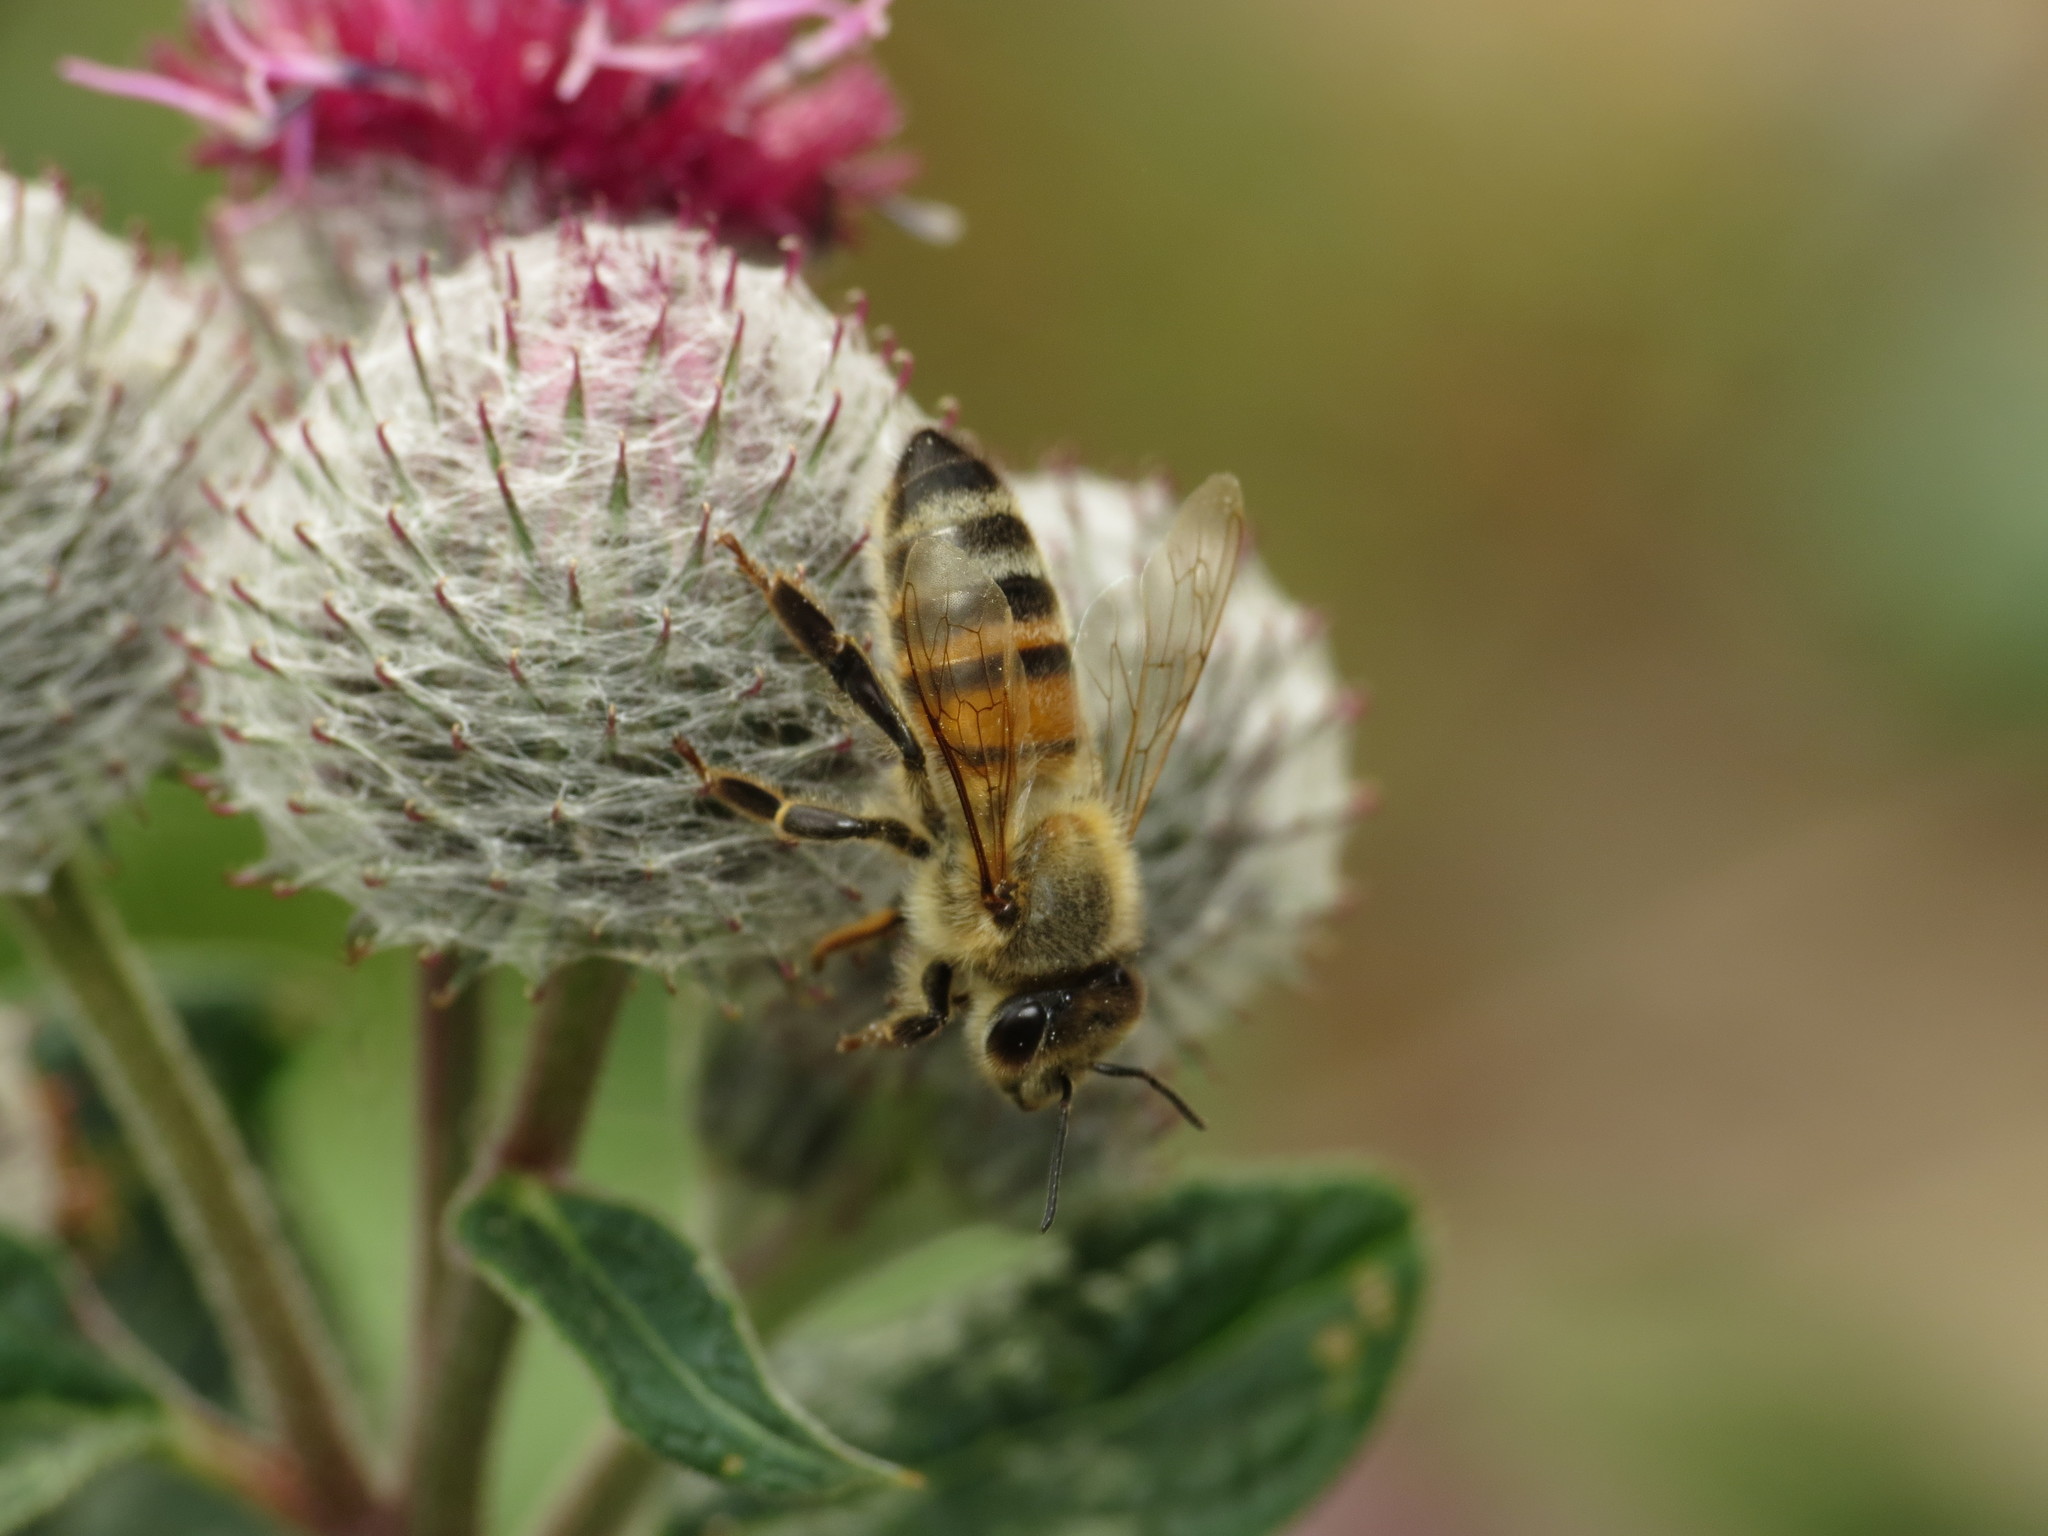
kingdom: Animalia
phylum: Arthropoda
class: Insecta
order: Hymenoptera
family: Apidae
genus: Apis
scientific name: Apis mellifera
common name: Honey bee
